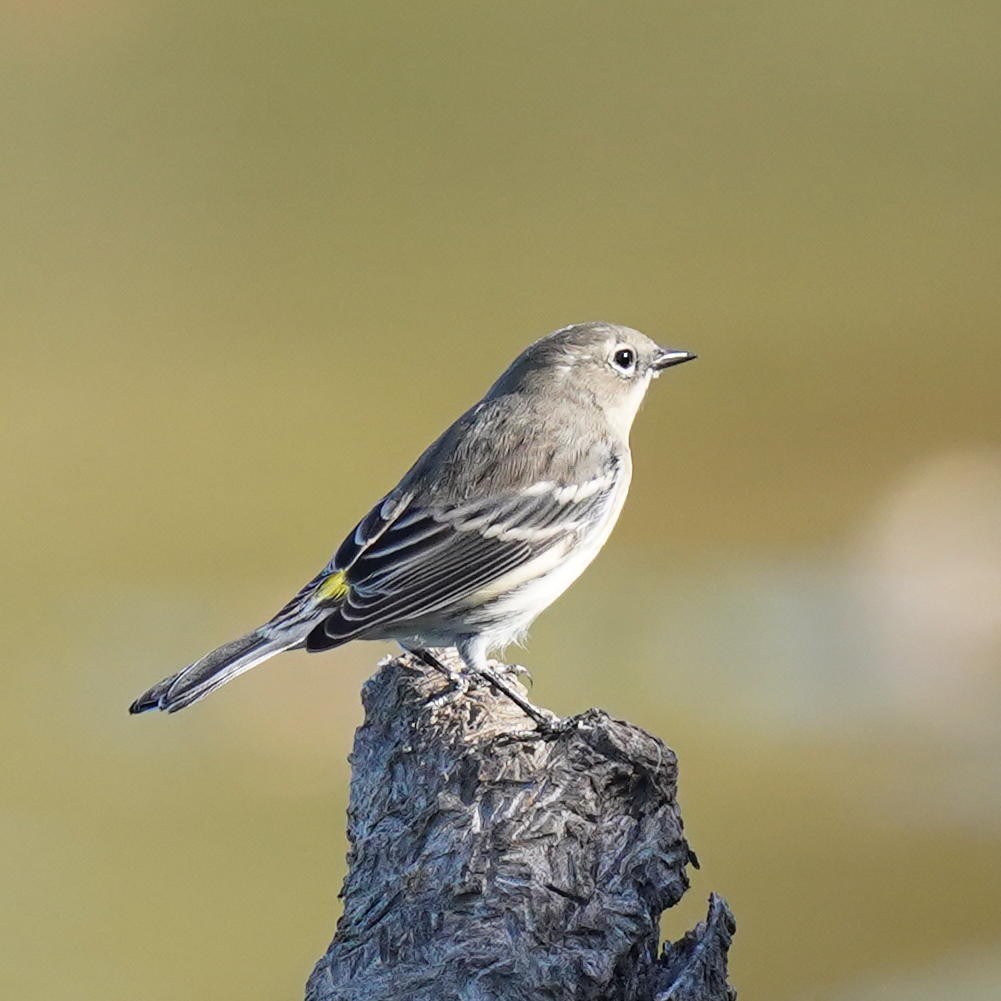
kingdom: Animalia
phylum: Chordata
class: Aves
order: Passeriformes
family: Parulidae
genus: Setophaga
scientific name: Setophaga coronata
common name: Myrtle warbler
